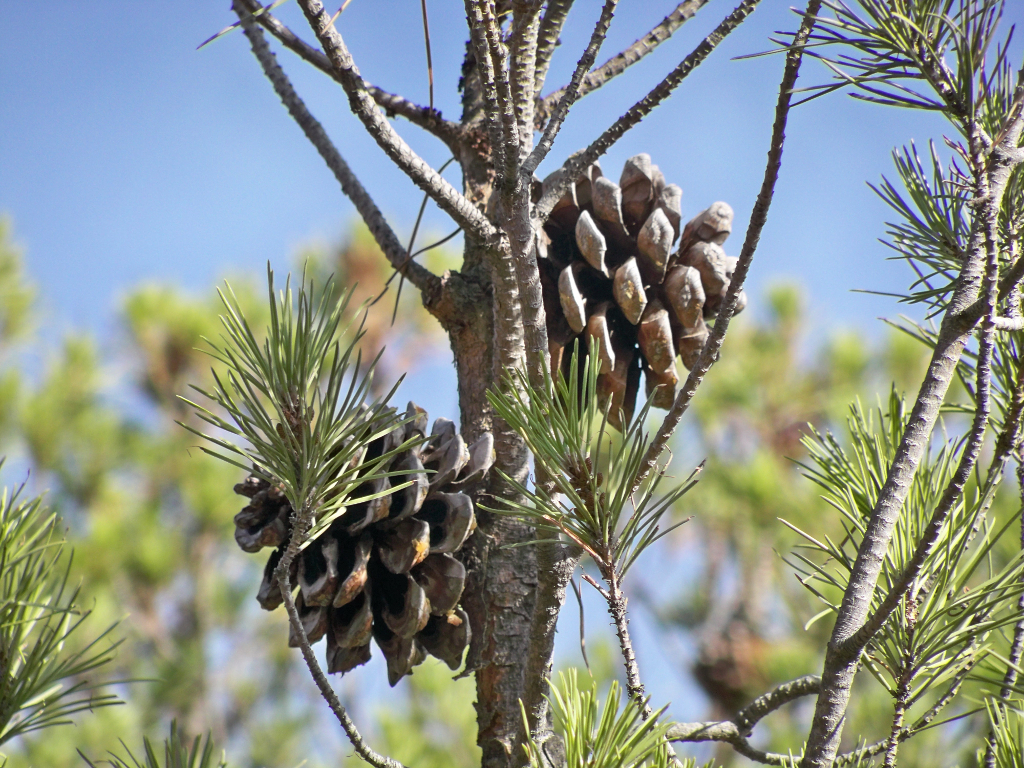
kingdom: Plantae
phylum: Tracheophyta
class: Pinopsida
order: Pinales
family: Pinaceae
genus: Pinus
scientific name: Pinus pinea
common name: Italian stone pine
